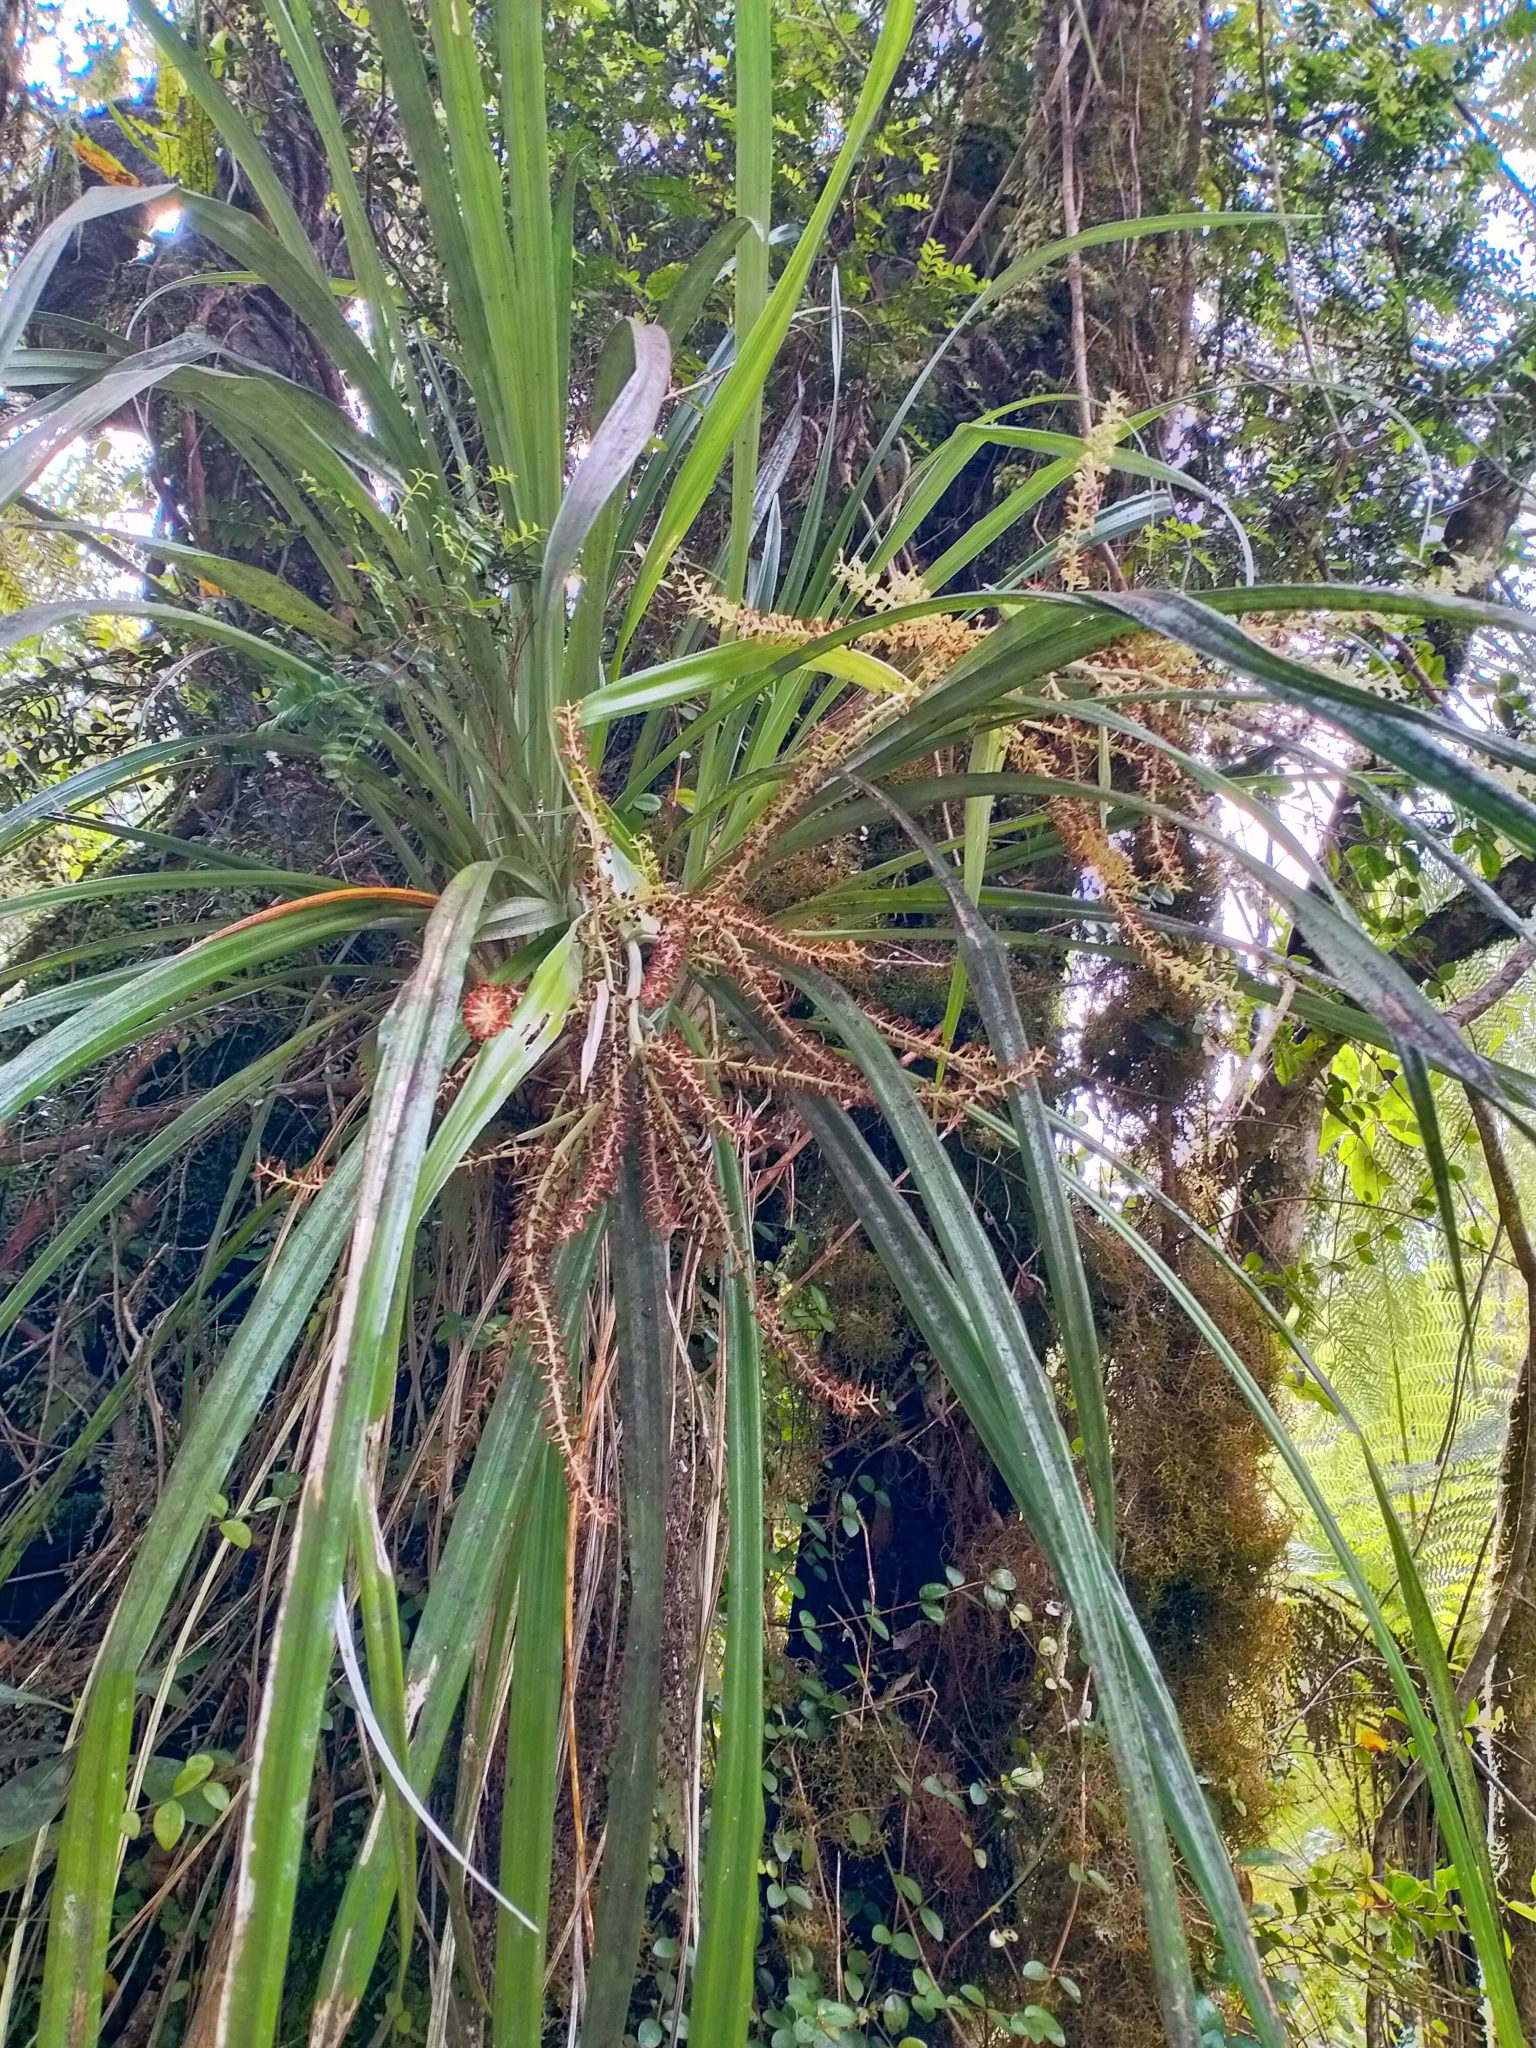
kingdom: Plantae
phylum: Tracheophyta
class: Liliopsida
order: Asparagales
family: Asteliaceae
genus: Astelia
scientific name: Astelia solandri
